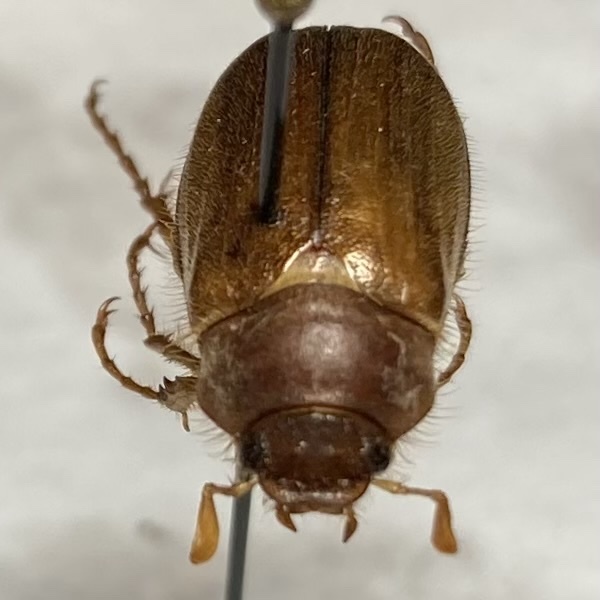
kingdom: Animalia
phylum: Arthropoda
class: Insecta
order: Coleoptera
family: Scarabaeidae
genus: Amphimallon
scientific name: Amphimallon majale
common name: European chafer
